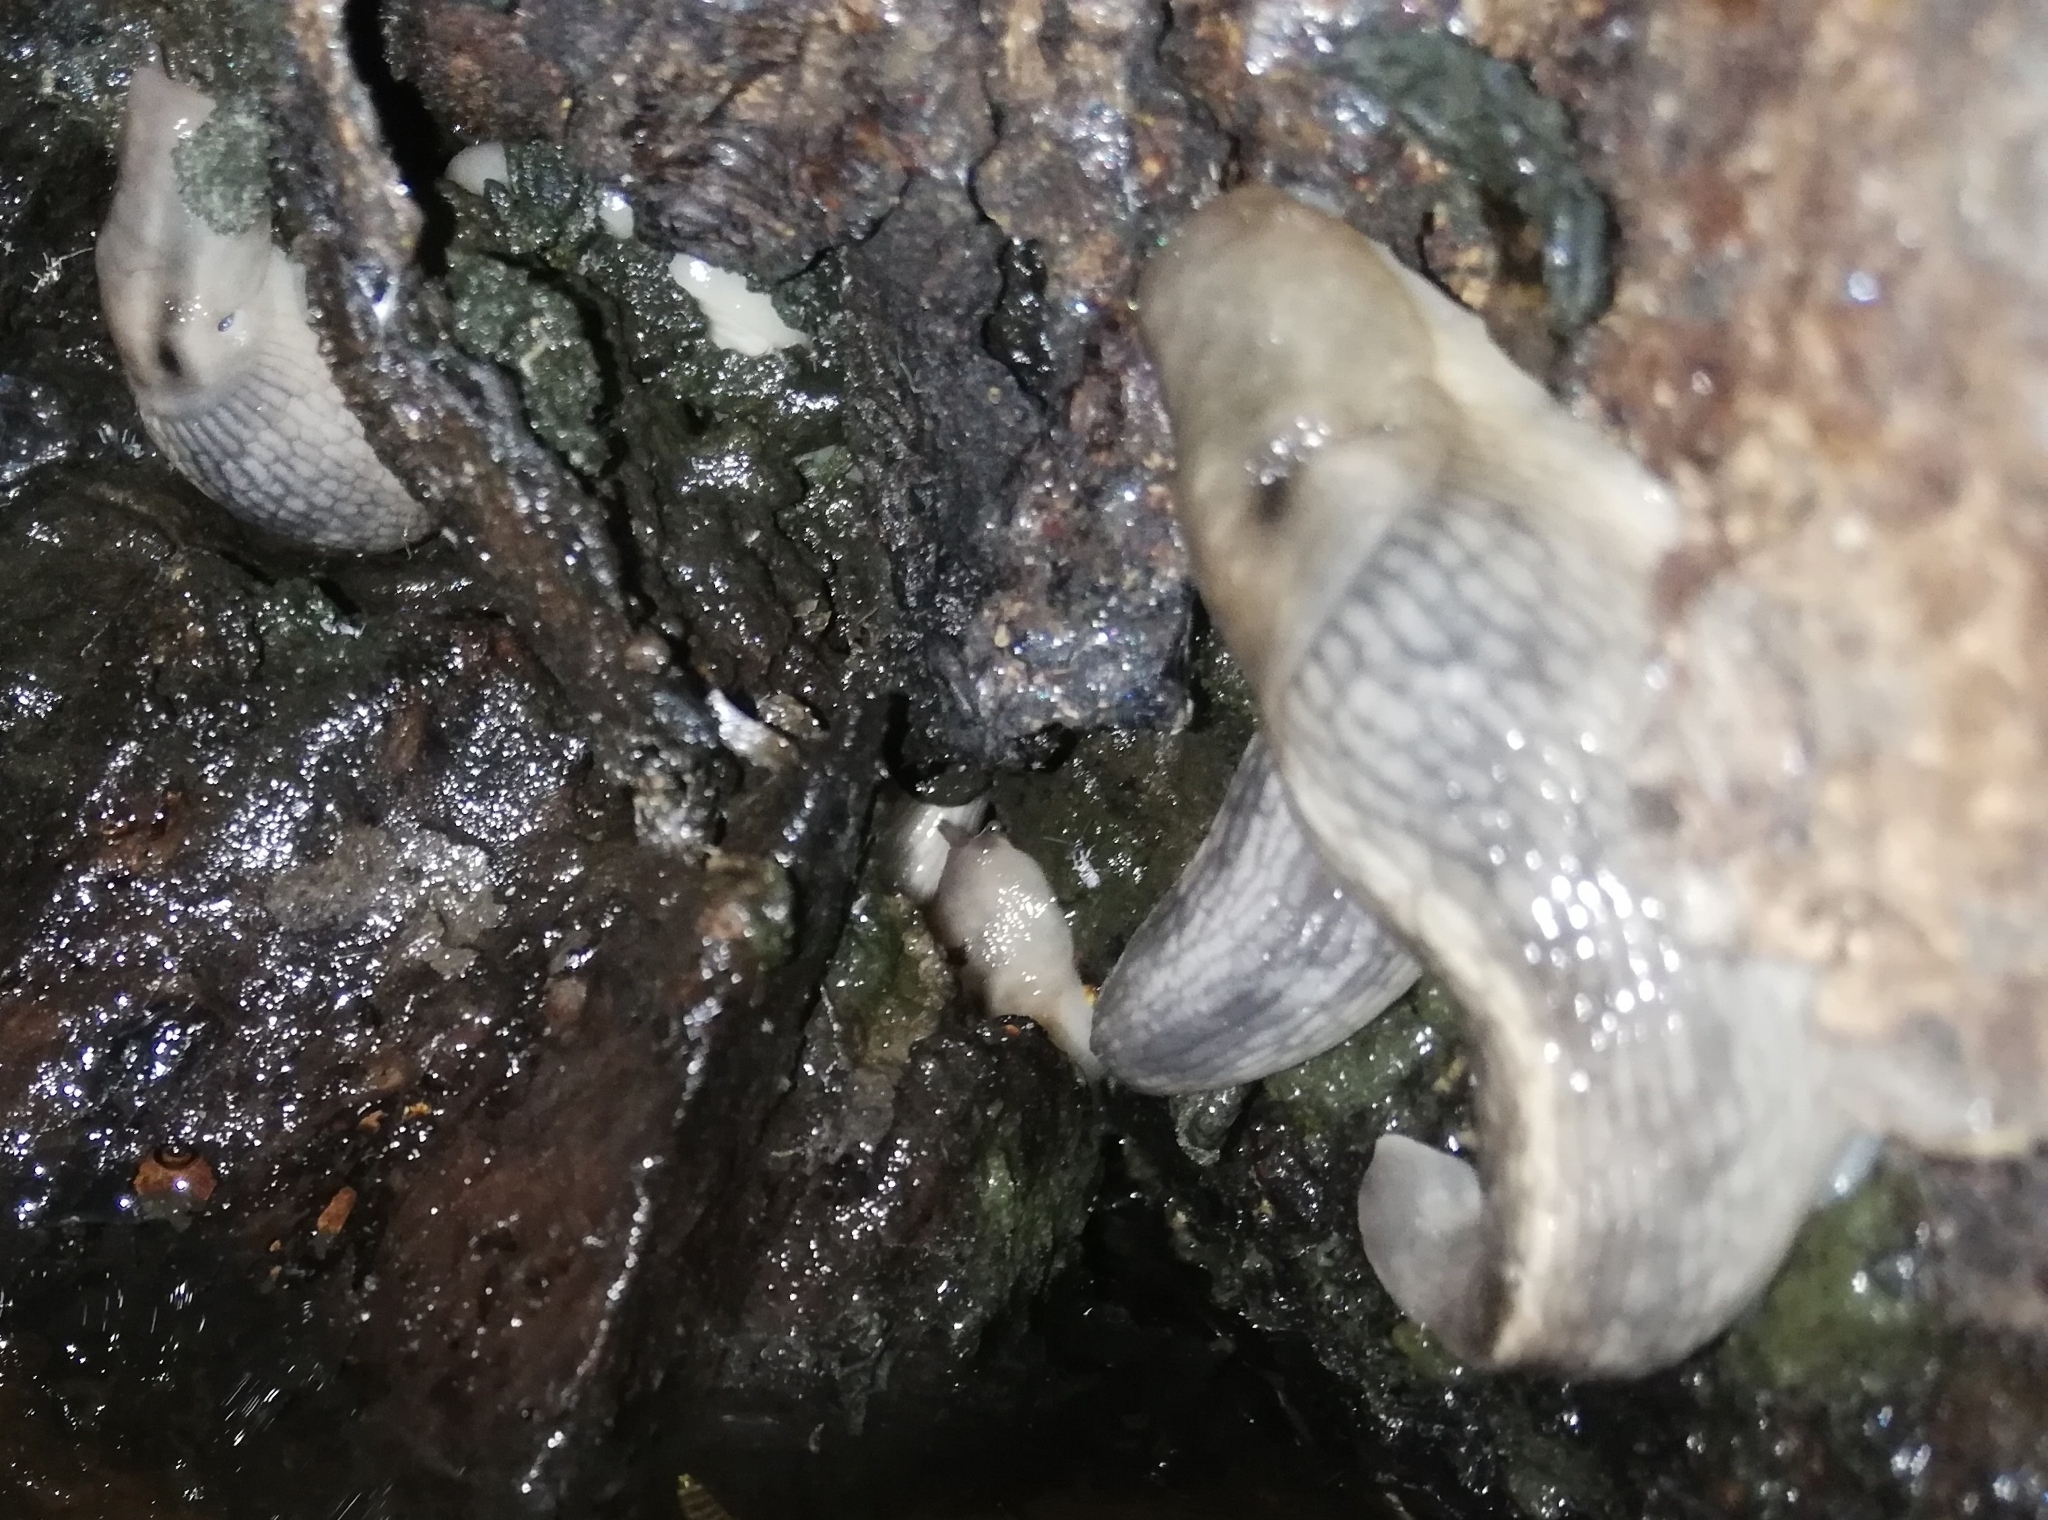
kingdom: Animalia
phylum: Mollusca
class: Gastropoda
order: Stylommatophora
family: Limacidae
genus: Lehmannia
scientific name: Lehmannia marginata
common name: Tree slug
